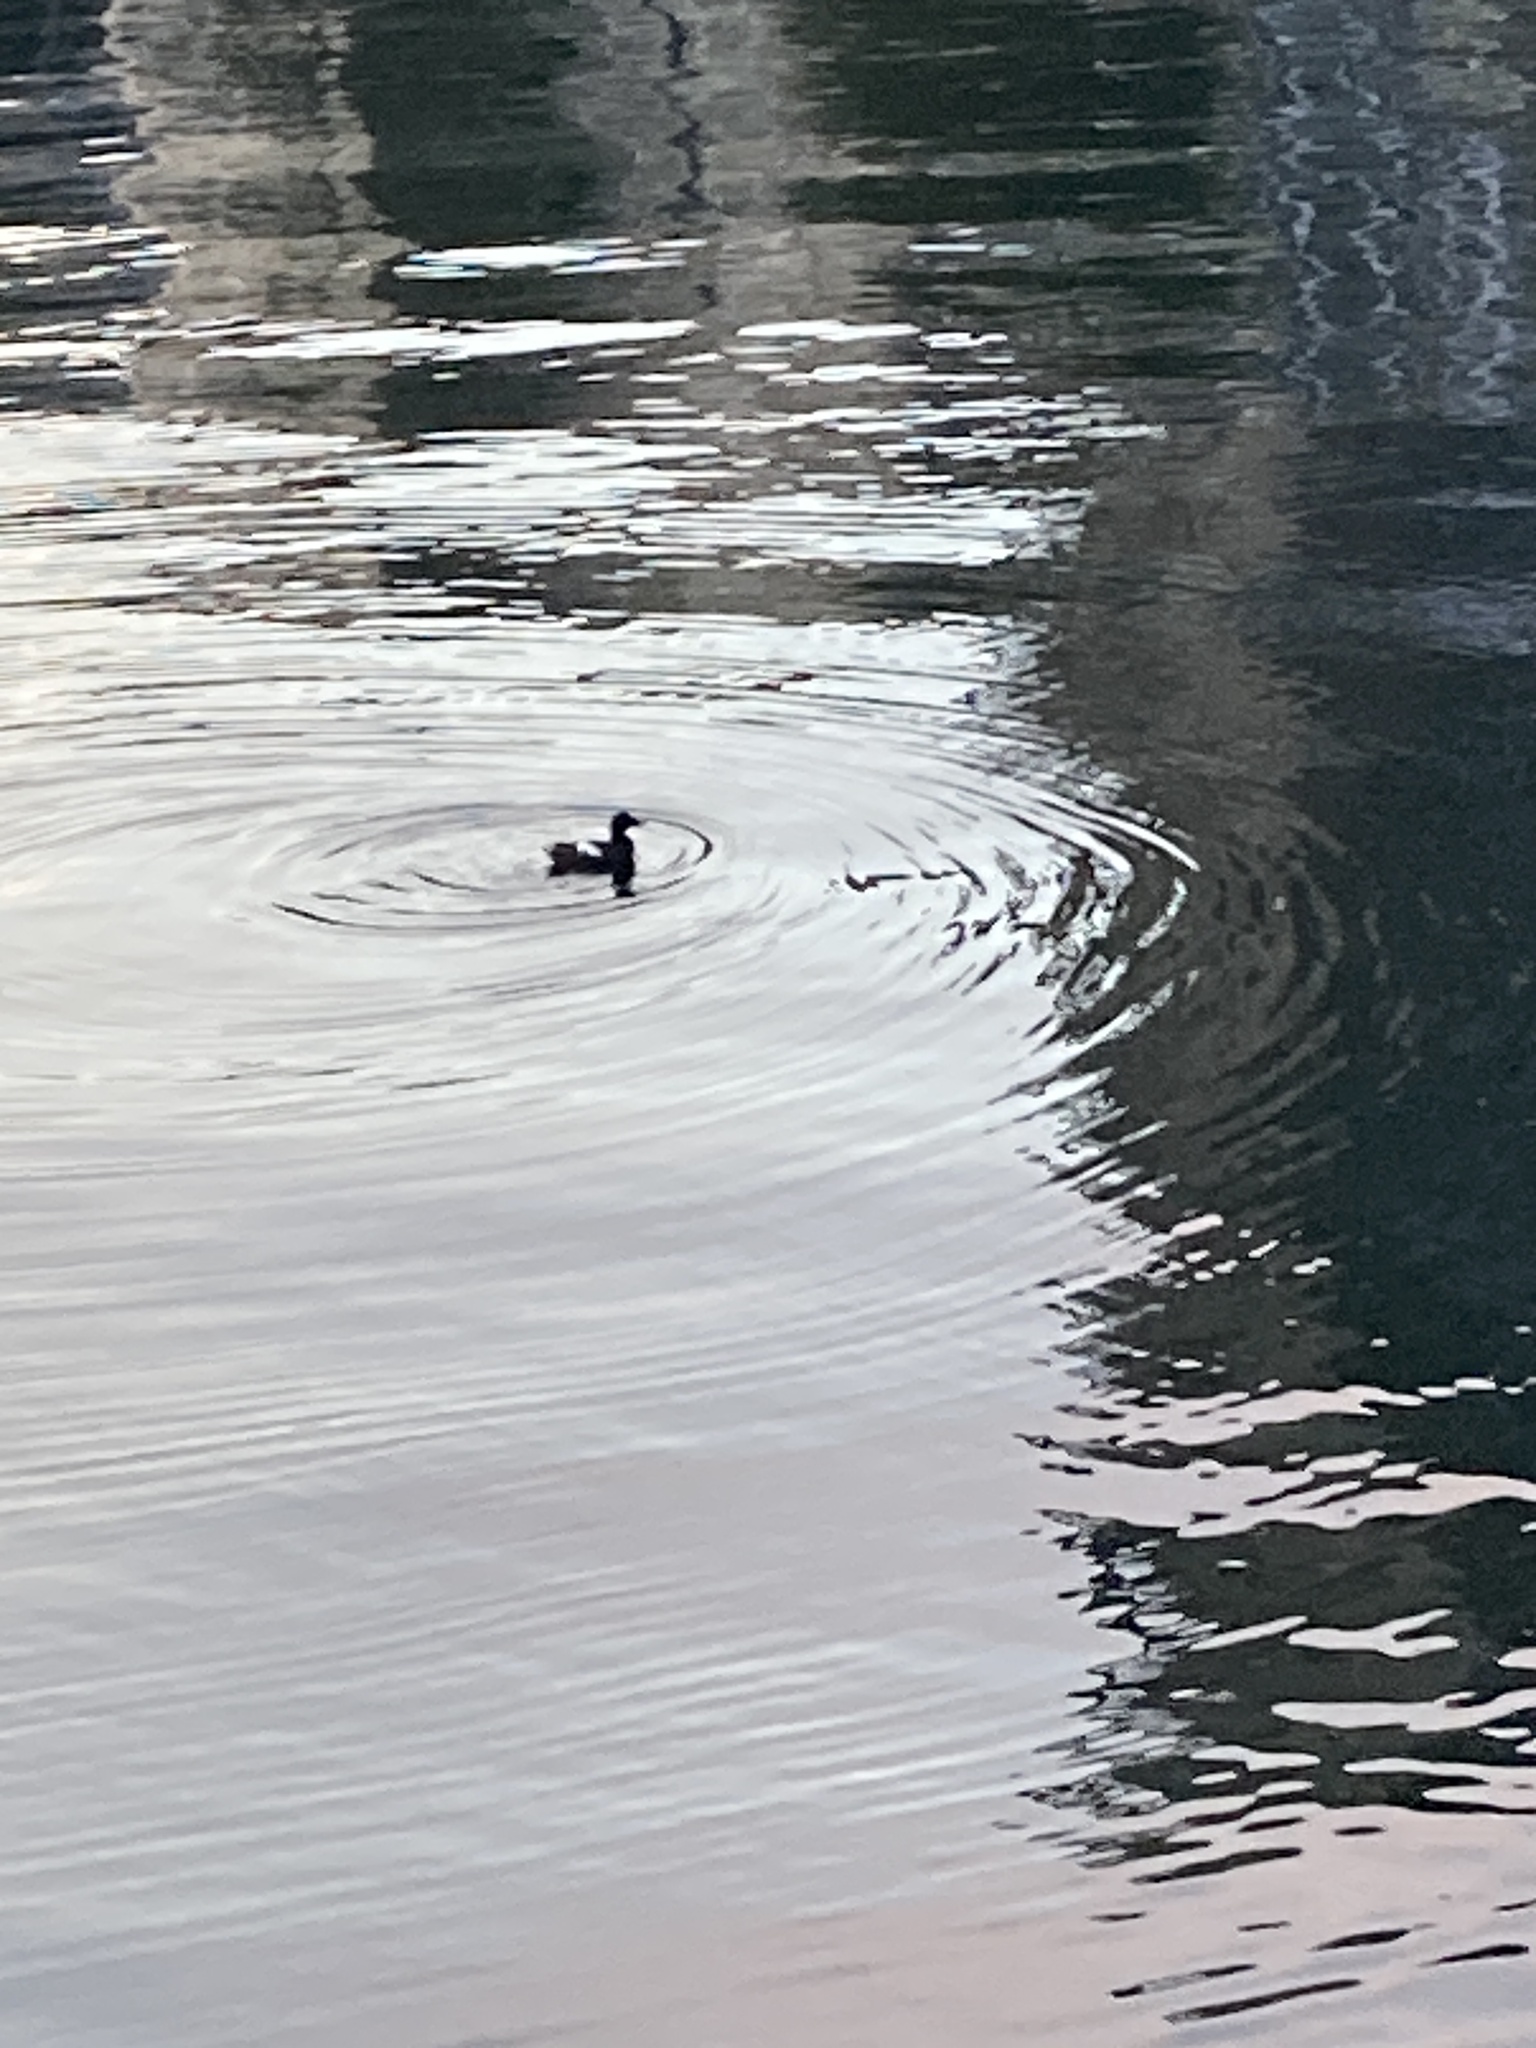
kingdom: Animalia
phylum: Chordata
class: Aves
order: Charadriiformes
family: Alcidae
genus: Cepphus
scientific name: Cepphus columba
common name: Pigeon guillemot
